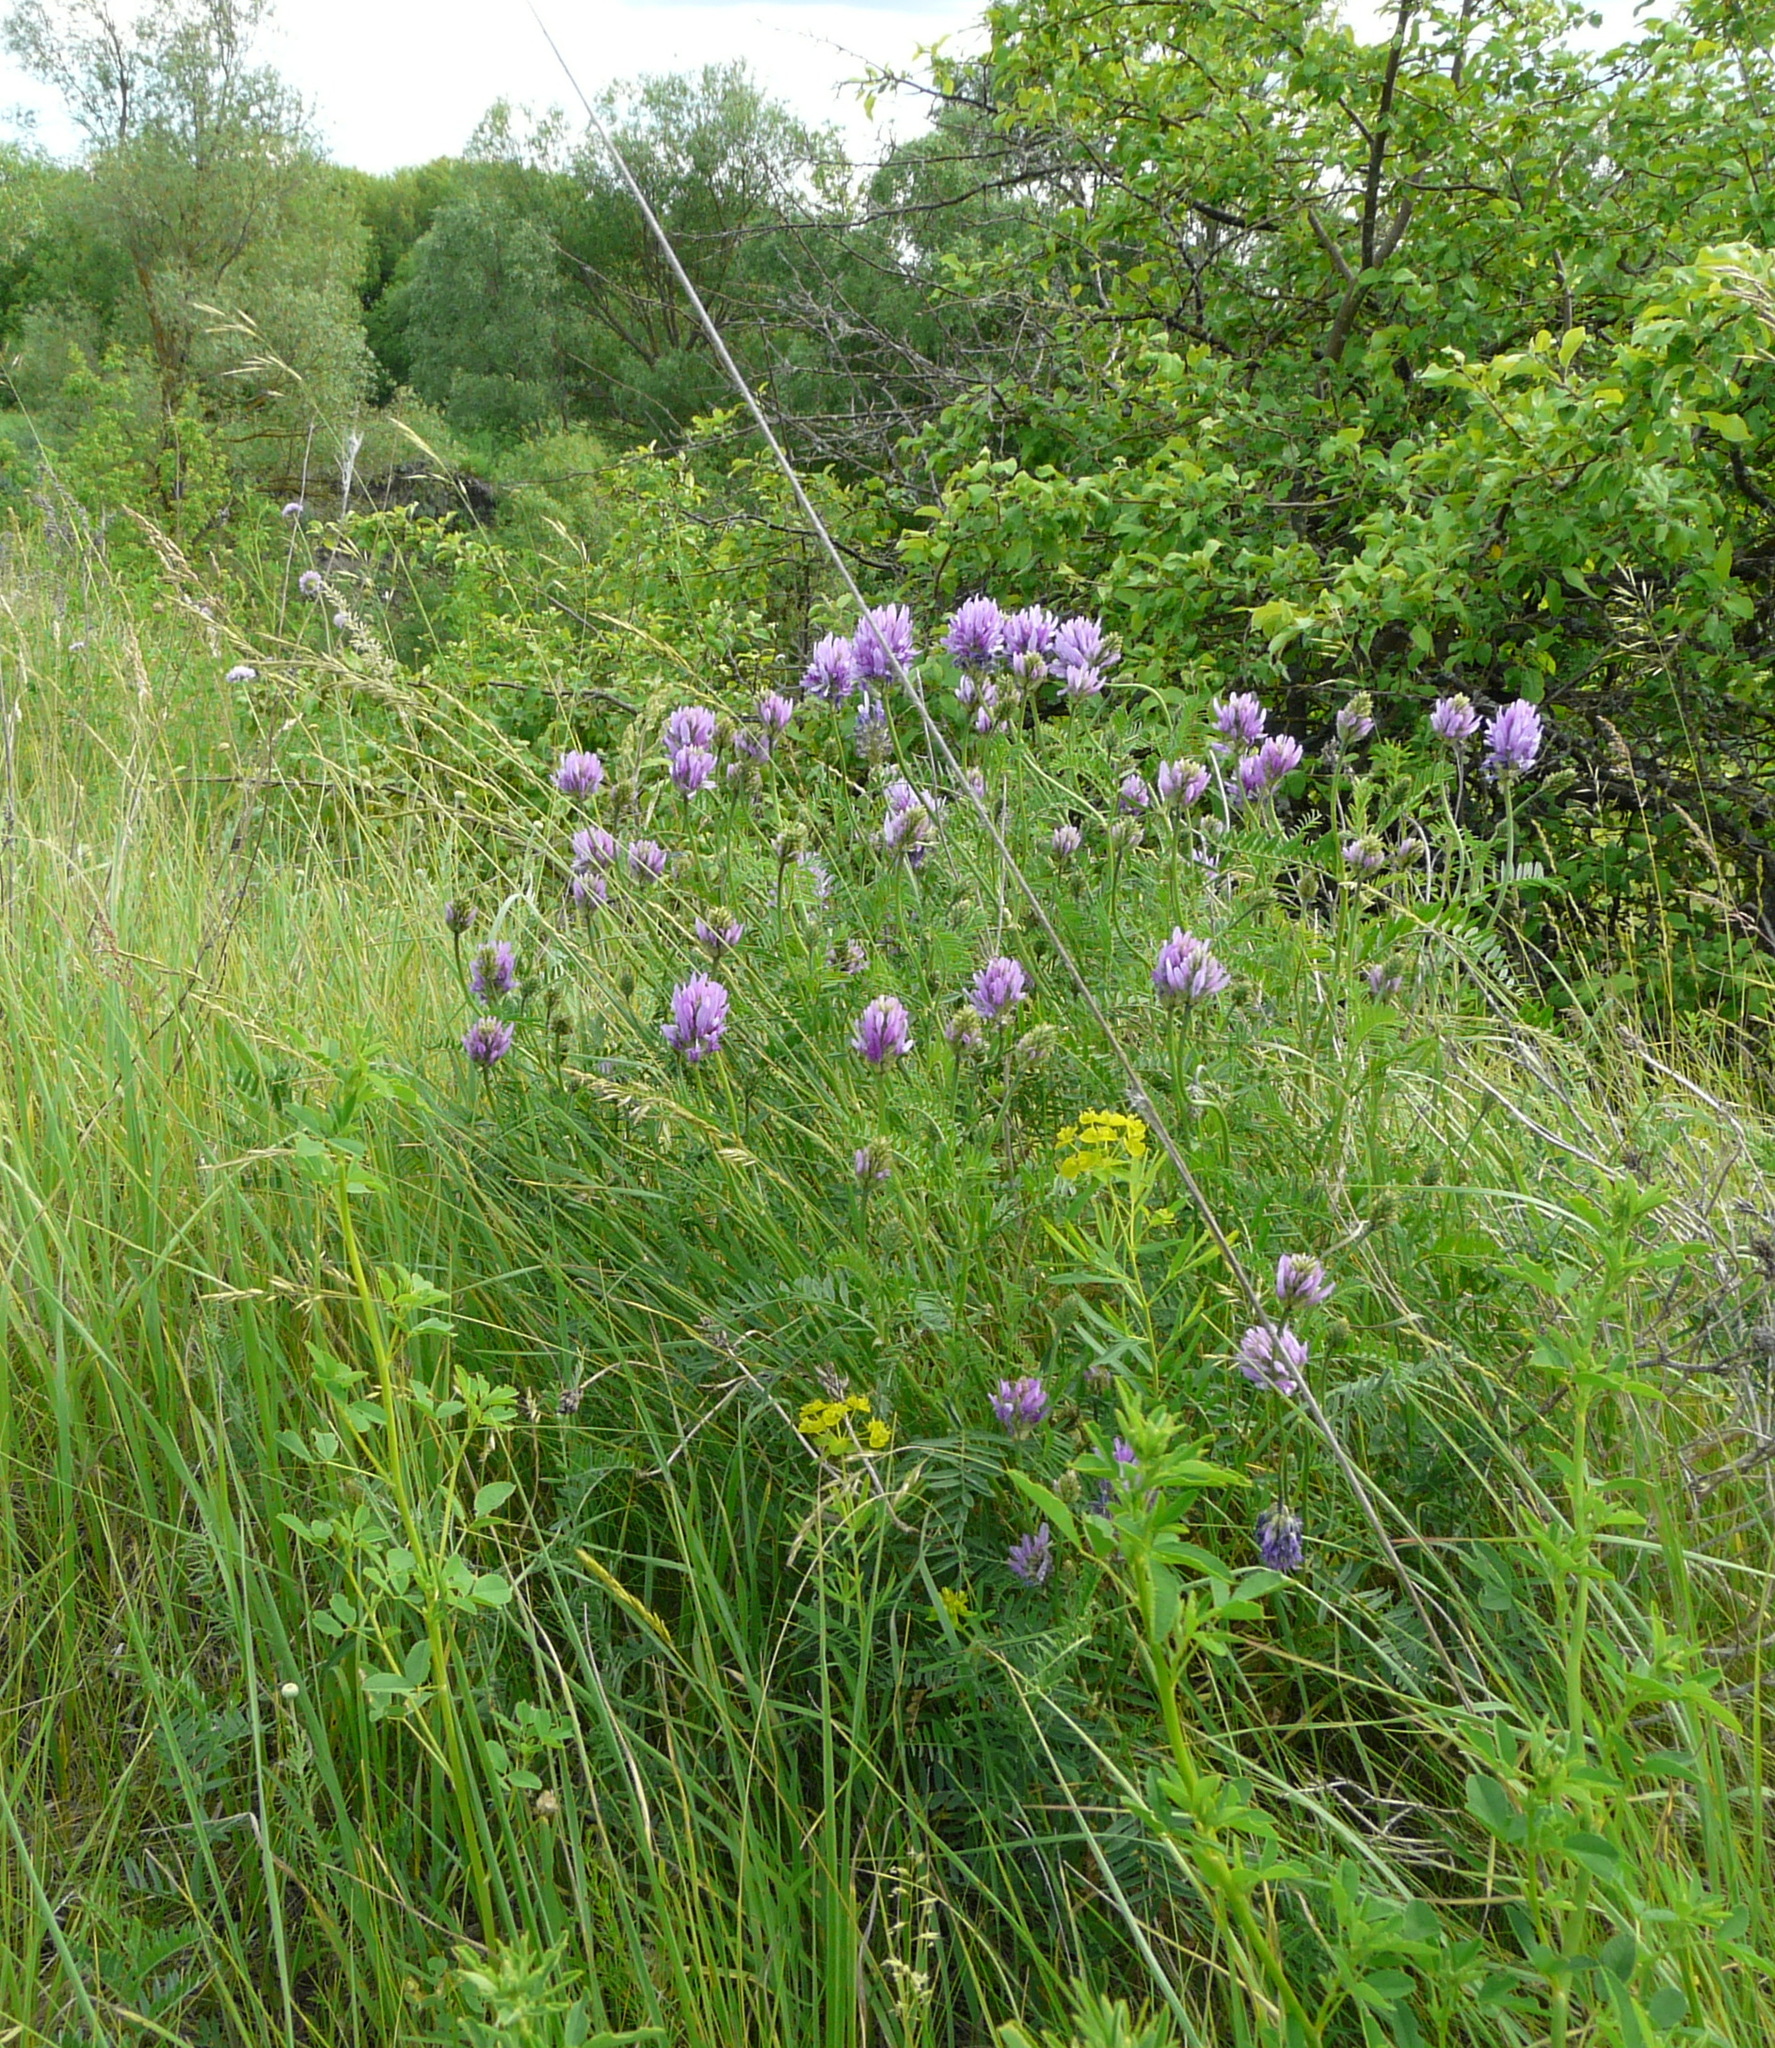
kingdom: Plantae
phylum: Tracheophyta
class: Magnoliopsida
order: Fabales
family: Fabaceae
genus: Astragalus
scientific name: Astragalus onobrychis
